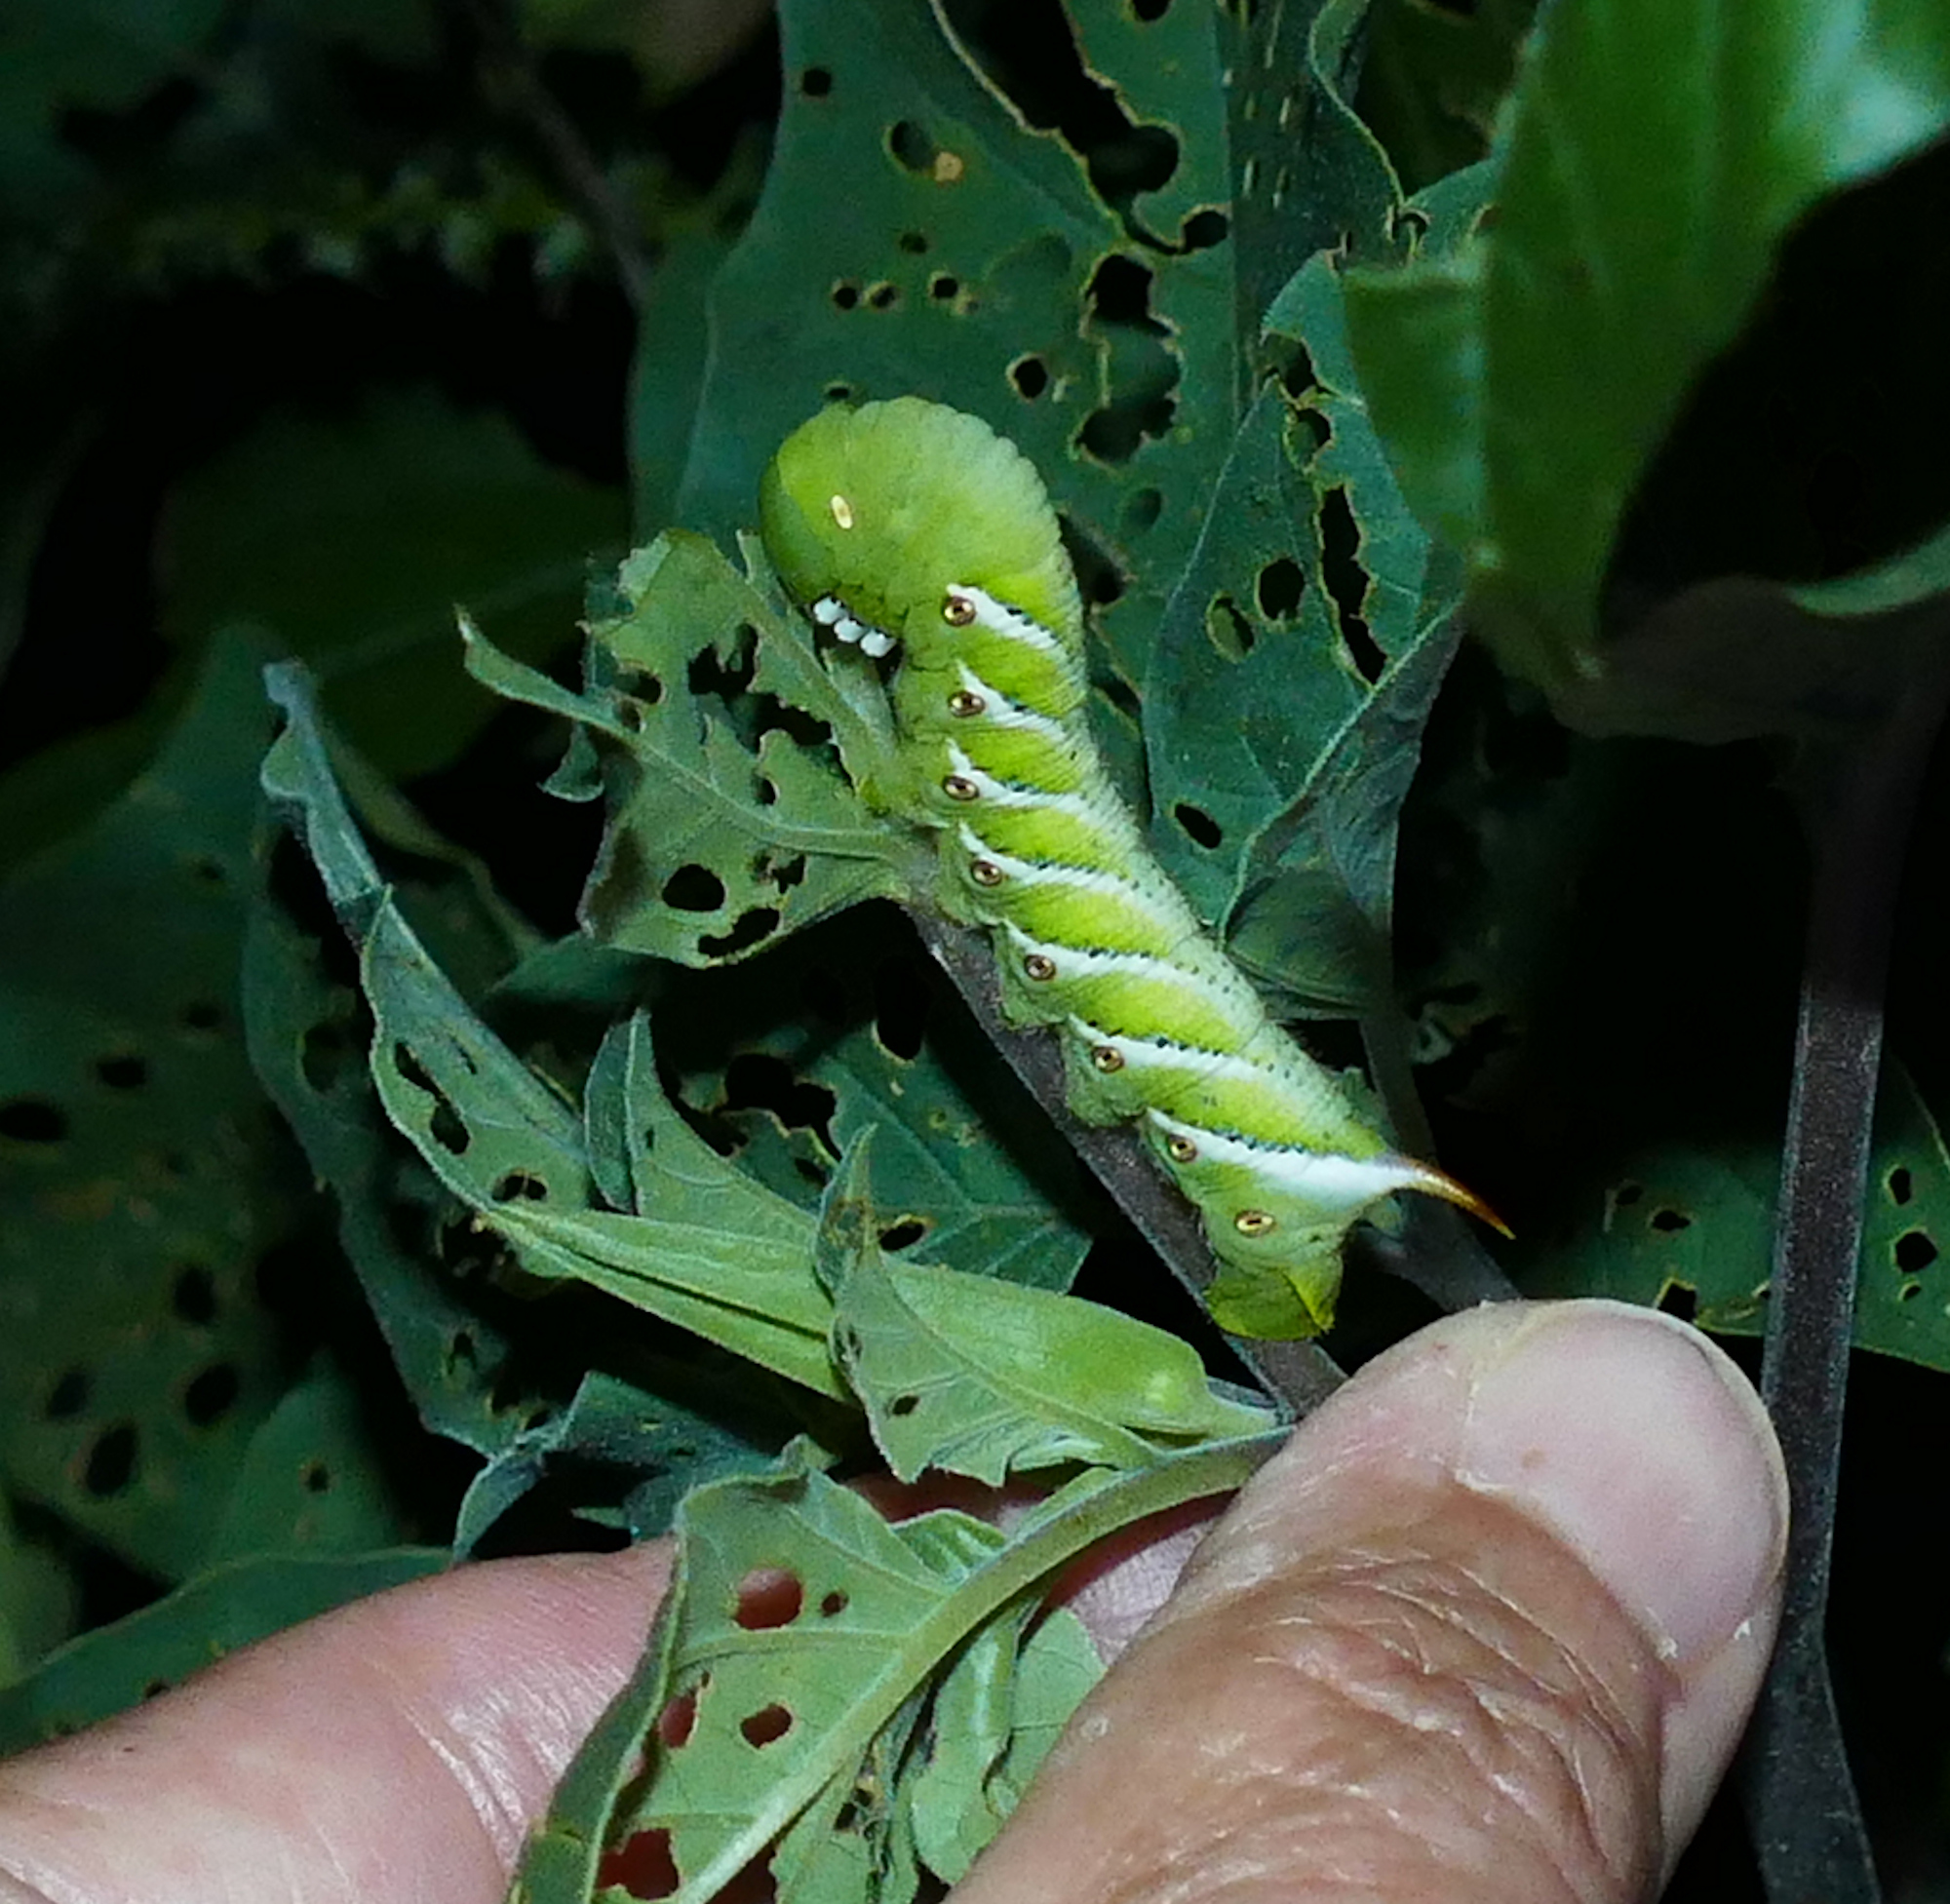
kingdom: Animalia
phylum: Arthropoda
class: Insecta
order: Lepidoptera
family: Sphingidae
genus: Manduca
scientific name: Manduca sexta
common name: Carolina sphinx
